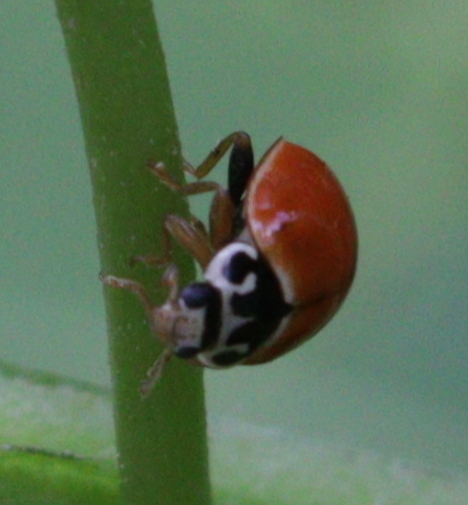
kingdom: Animalia
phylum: Arthropoda
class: Insecta
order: Coleoptera
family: Coccinellidae
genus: Cycloneda
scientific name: Cycloneda munda
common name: Polished lady beetle
